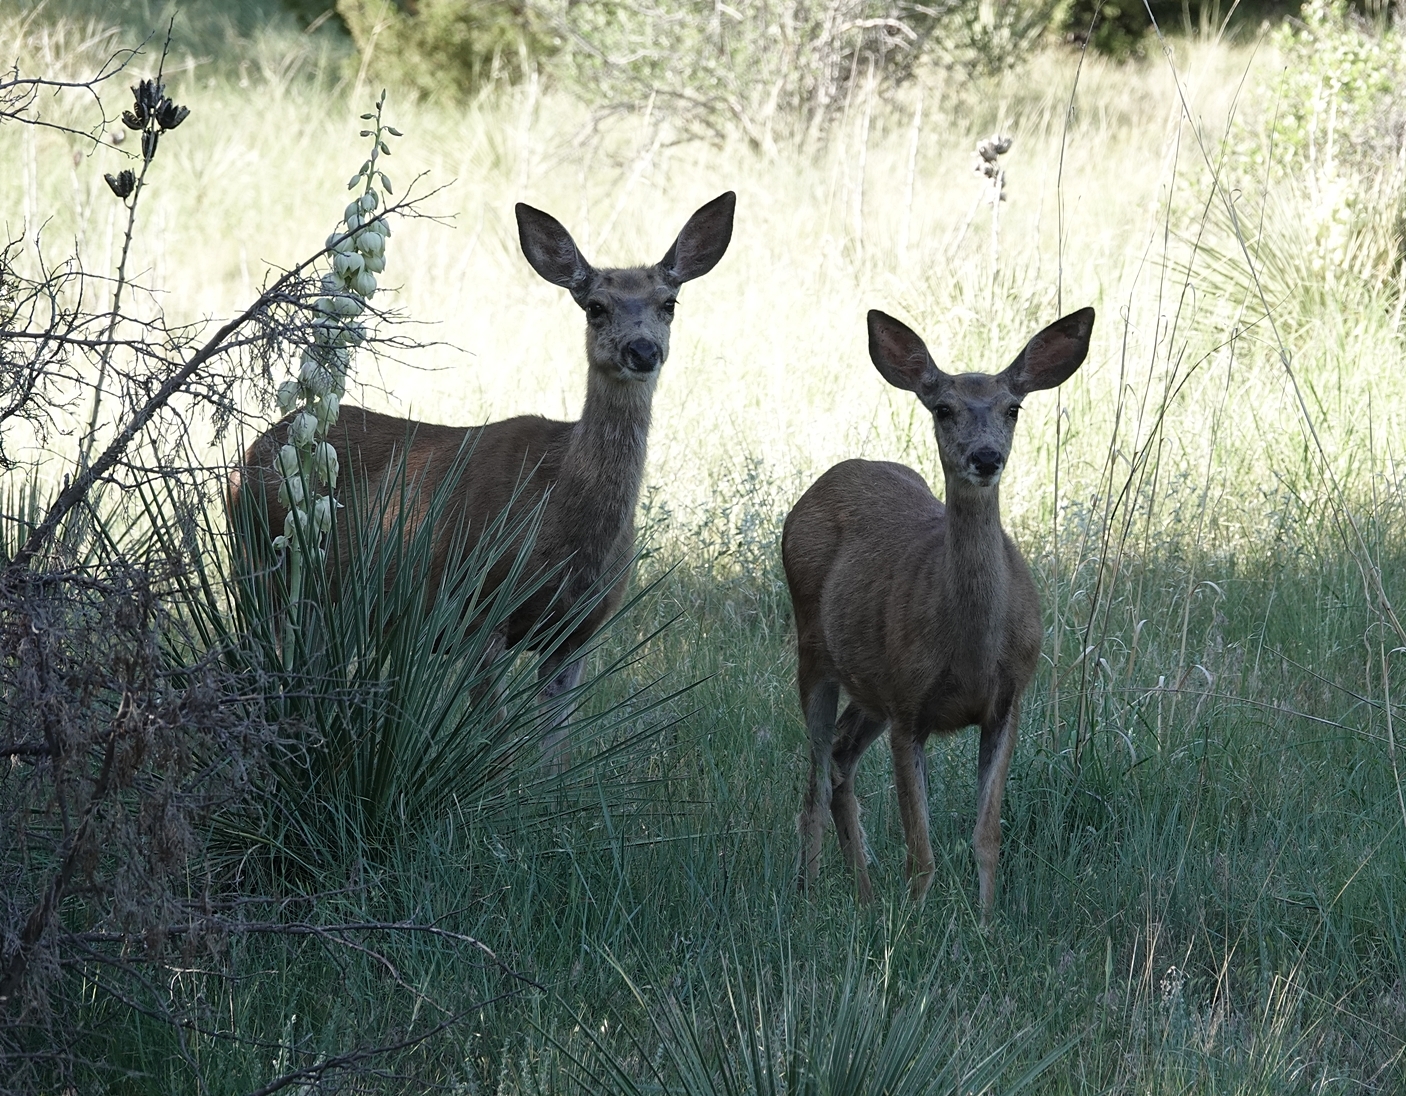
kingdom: Animalia
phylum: Chordata
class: Mammalia
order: Artiodactyla
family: Cervidae
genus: Odocoileus
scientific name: Odocoileus hemionus
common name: Mule deer
